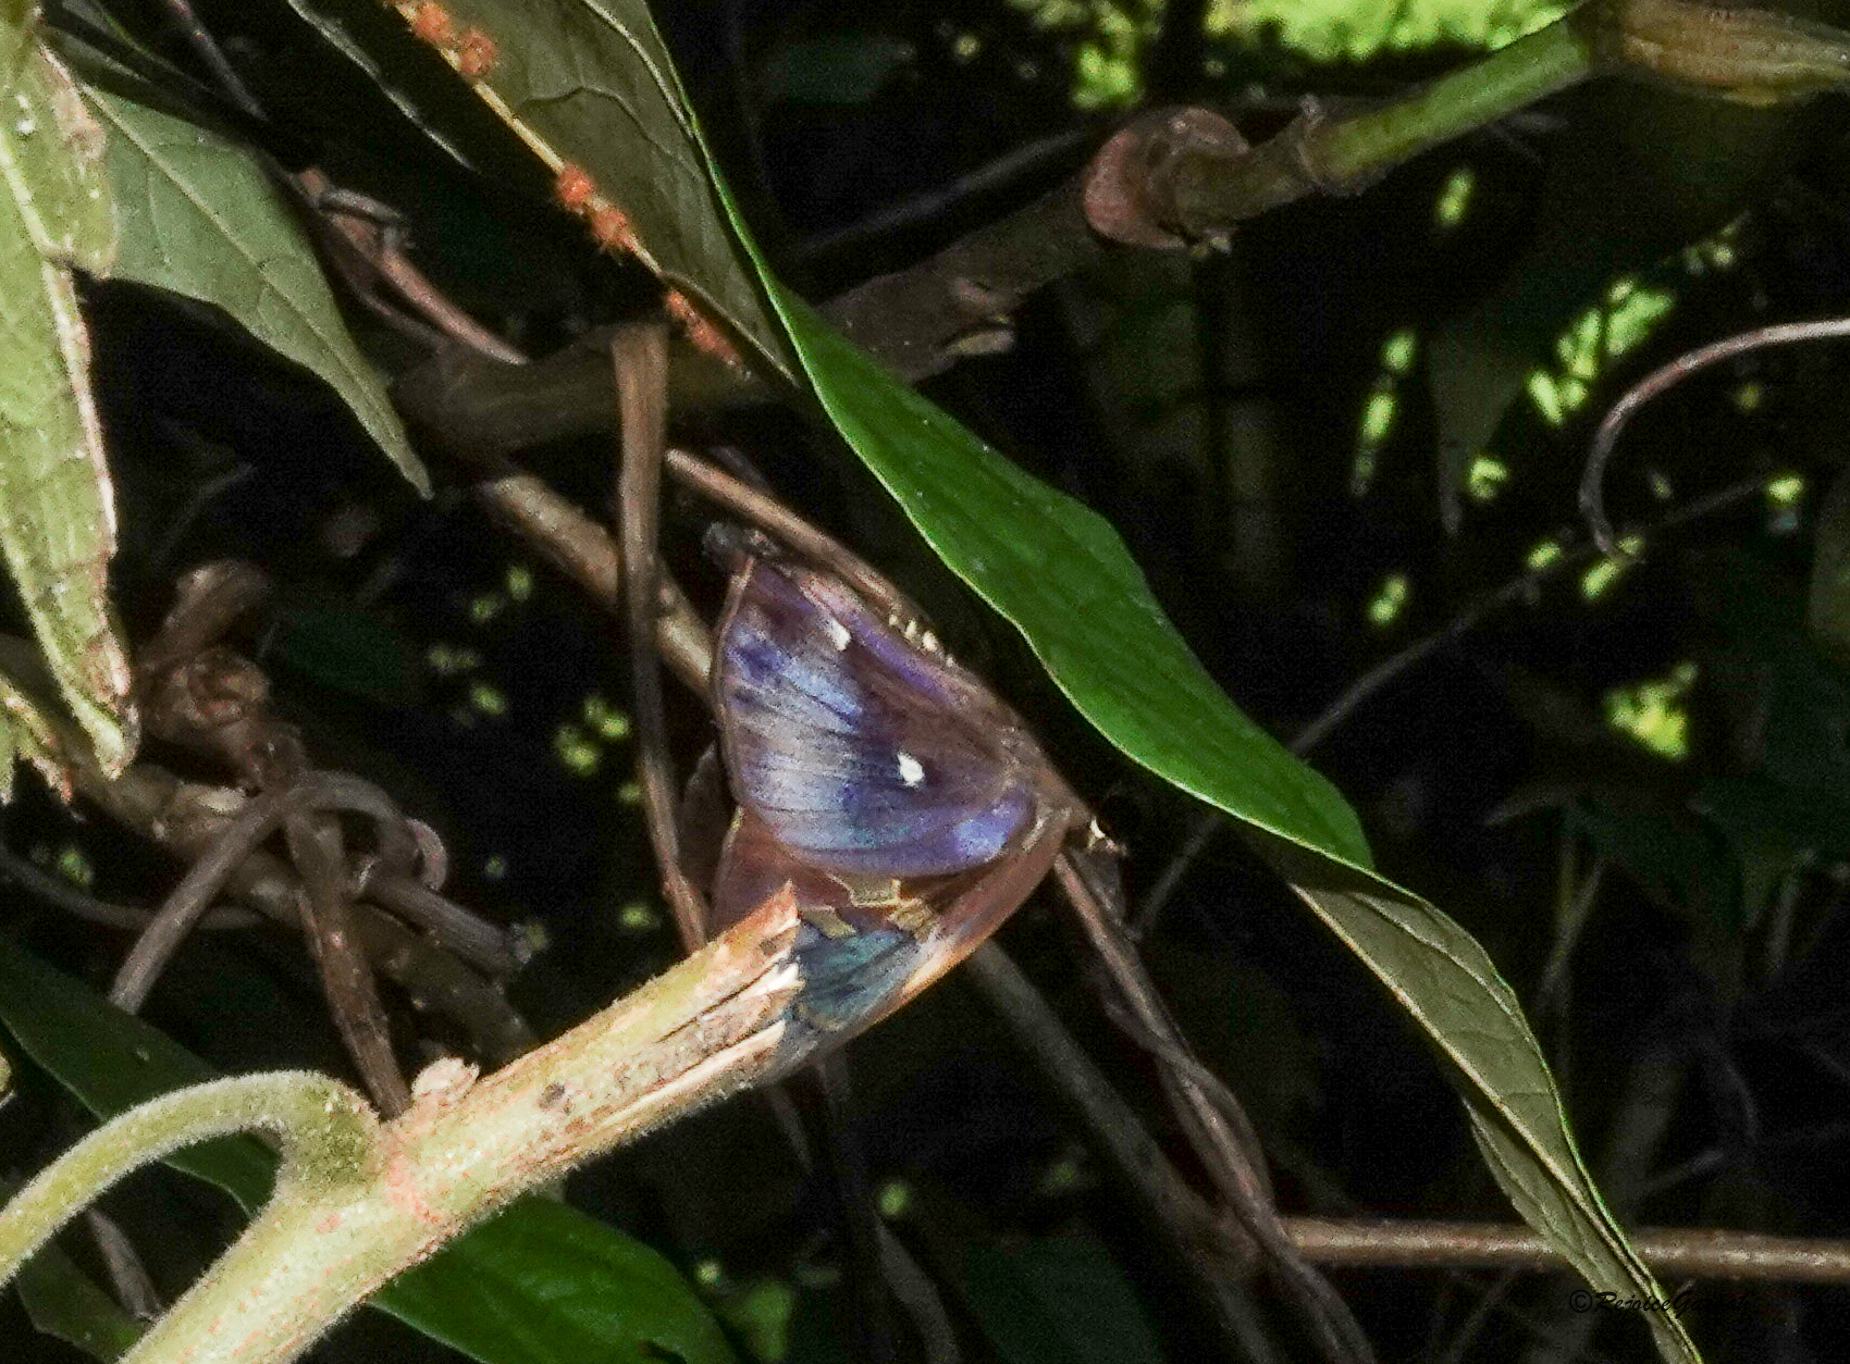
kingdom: Animalia
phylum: Arthropoda
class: Insecta
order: Lepidoptera
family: Hesperiidae
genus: Hasora
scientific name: Hasora badra
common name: Common awl
